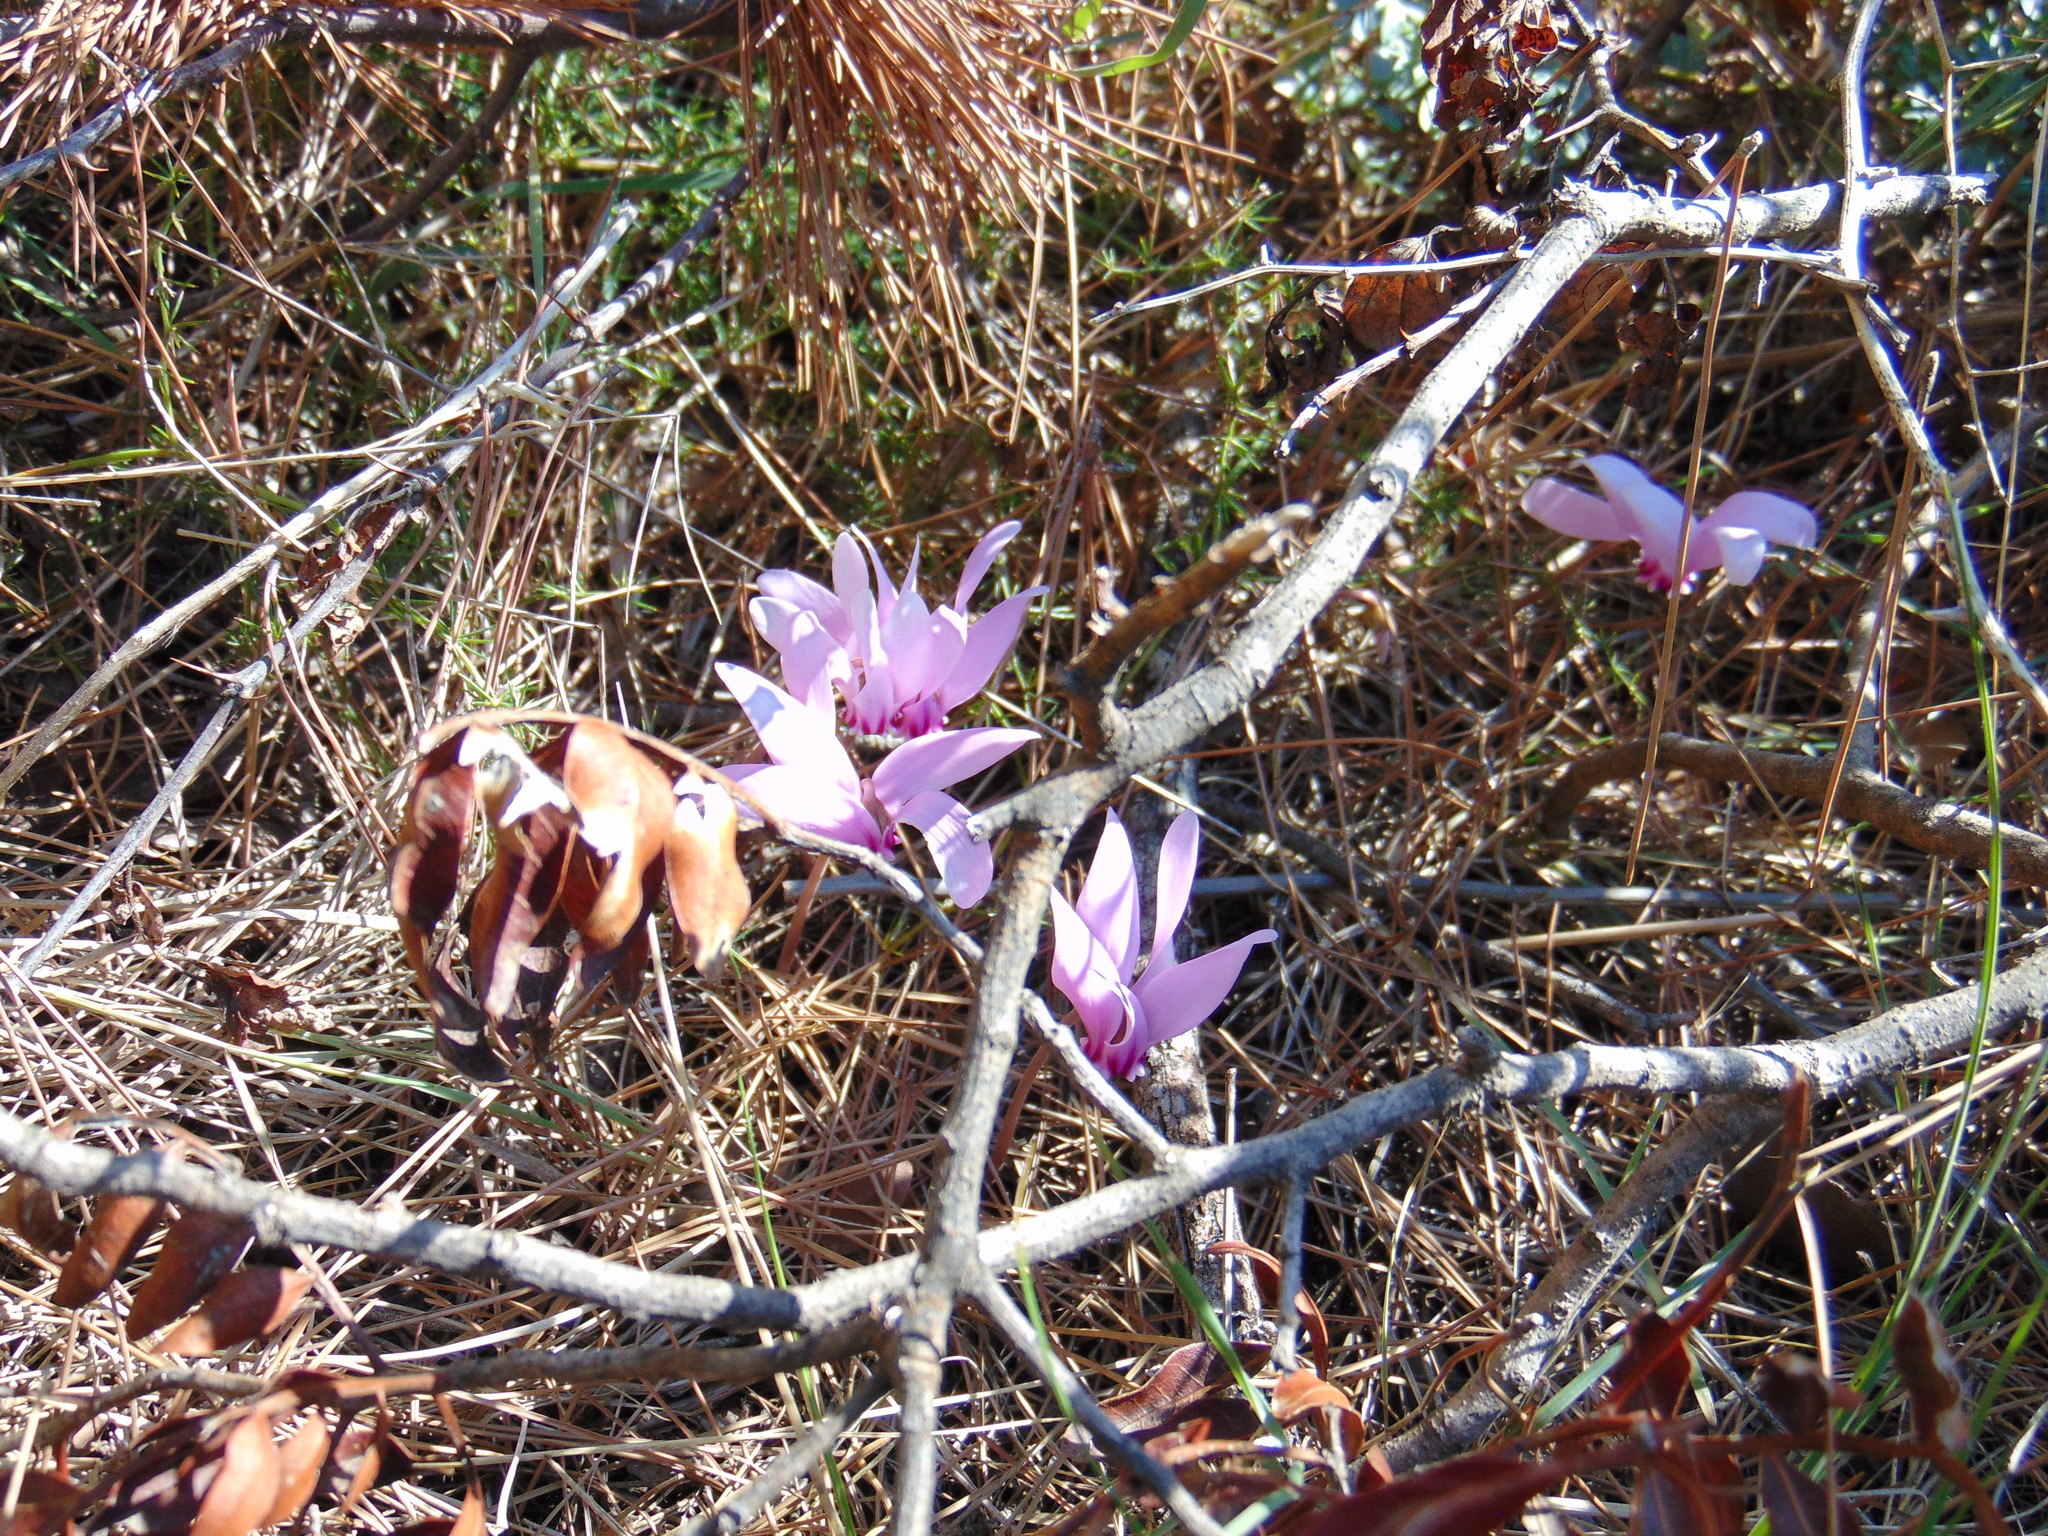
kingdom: Plantae
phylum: Tracheophyta
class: Magnoliopsida
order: Ericales
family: Primulaceae
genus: Cyclamen
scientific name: Cyclamen hederifolium
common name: Sowbread
